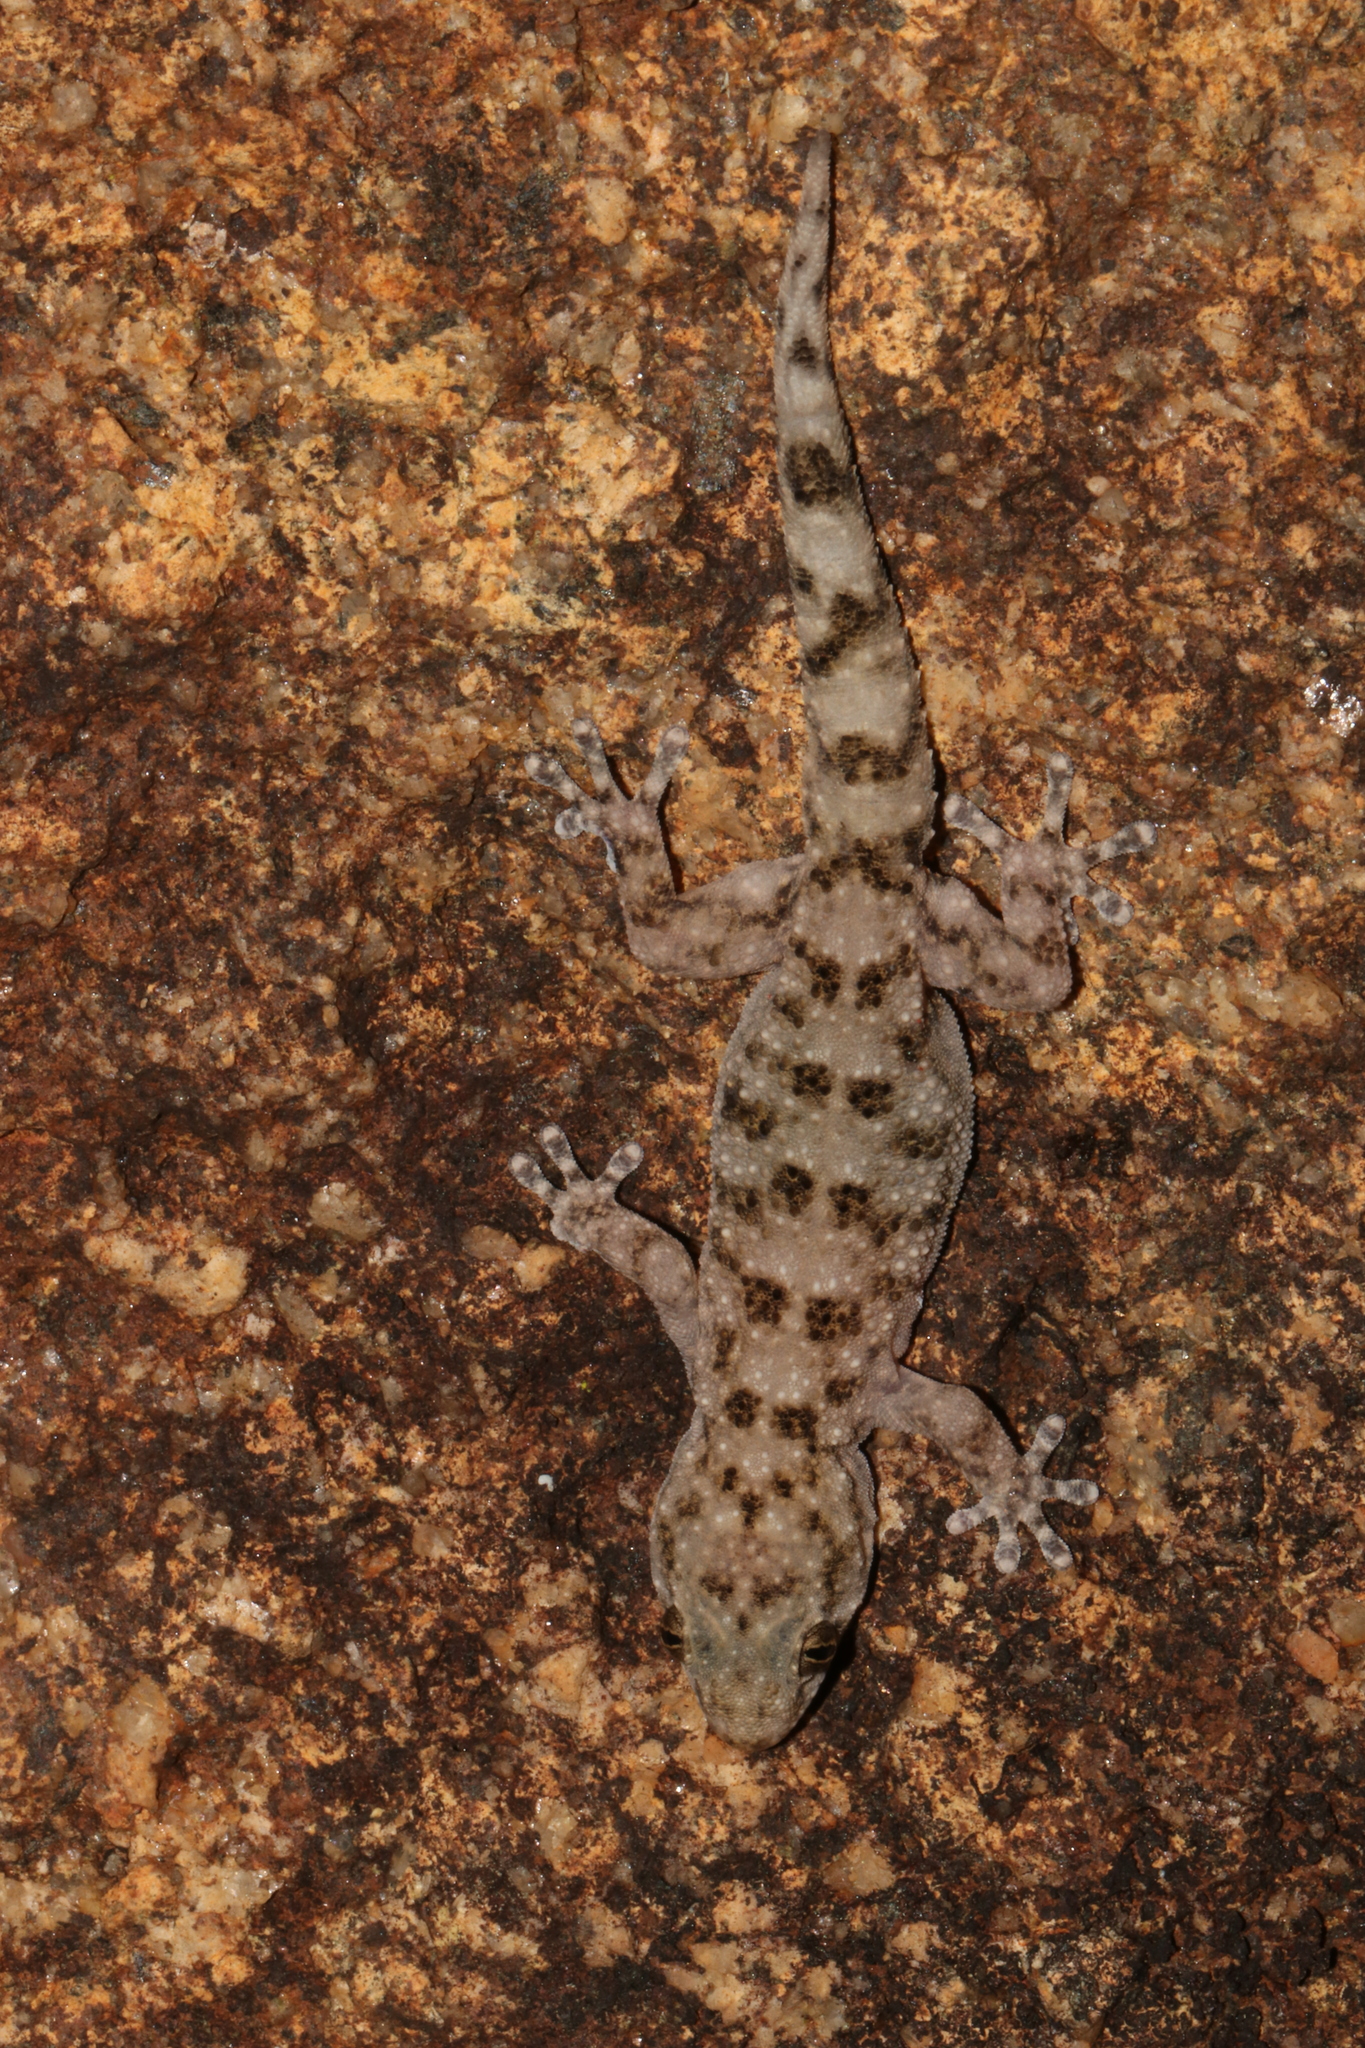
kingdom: Animalia
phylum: Chordata
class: Squamata
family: Gekkonidae
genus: Elasmodactylus
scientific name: Elasmodactylus tuberculosus
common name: Warty thick-toed gecko
